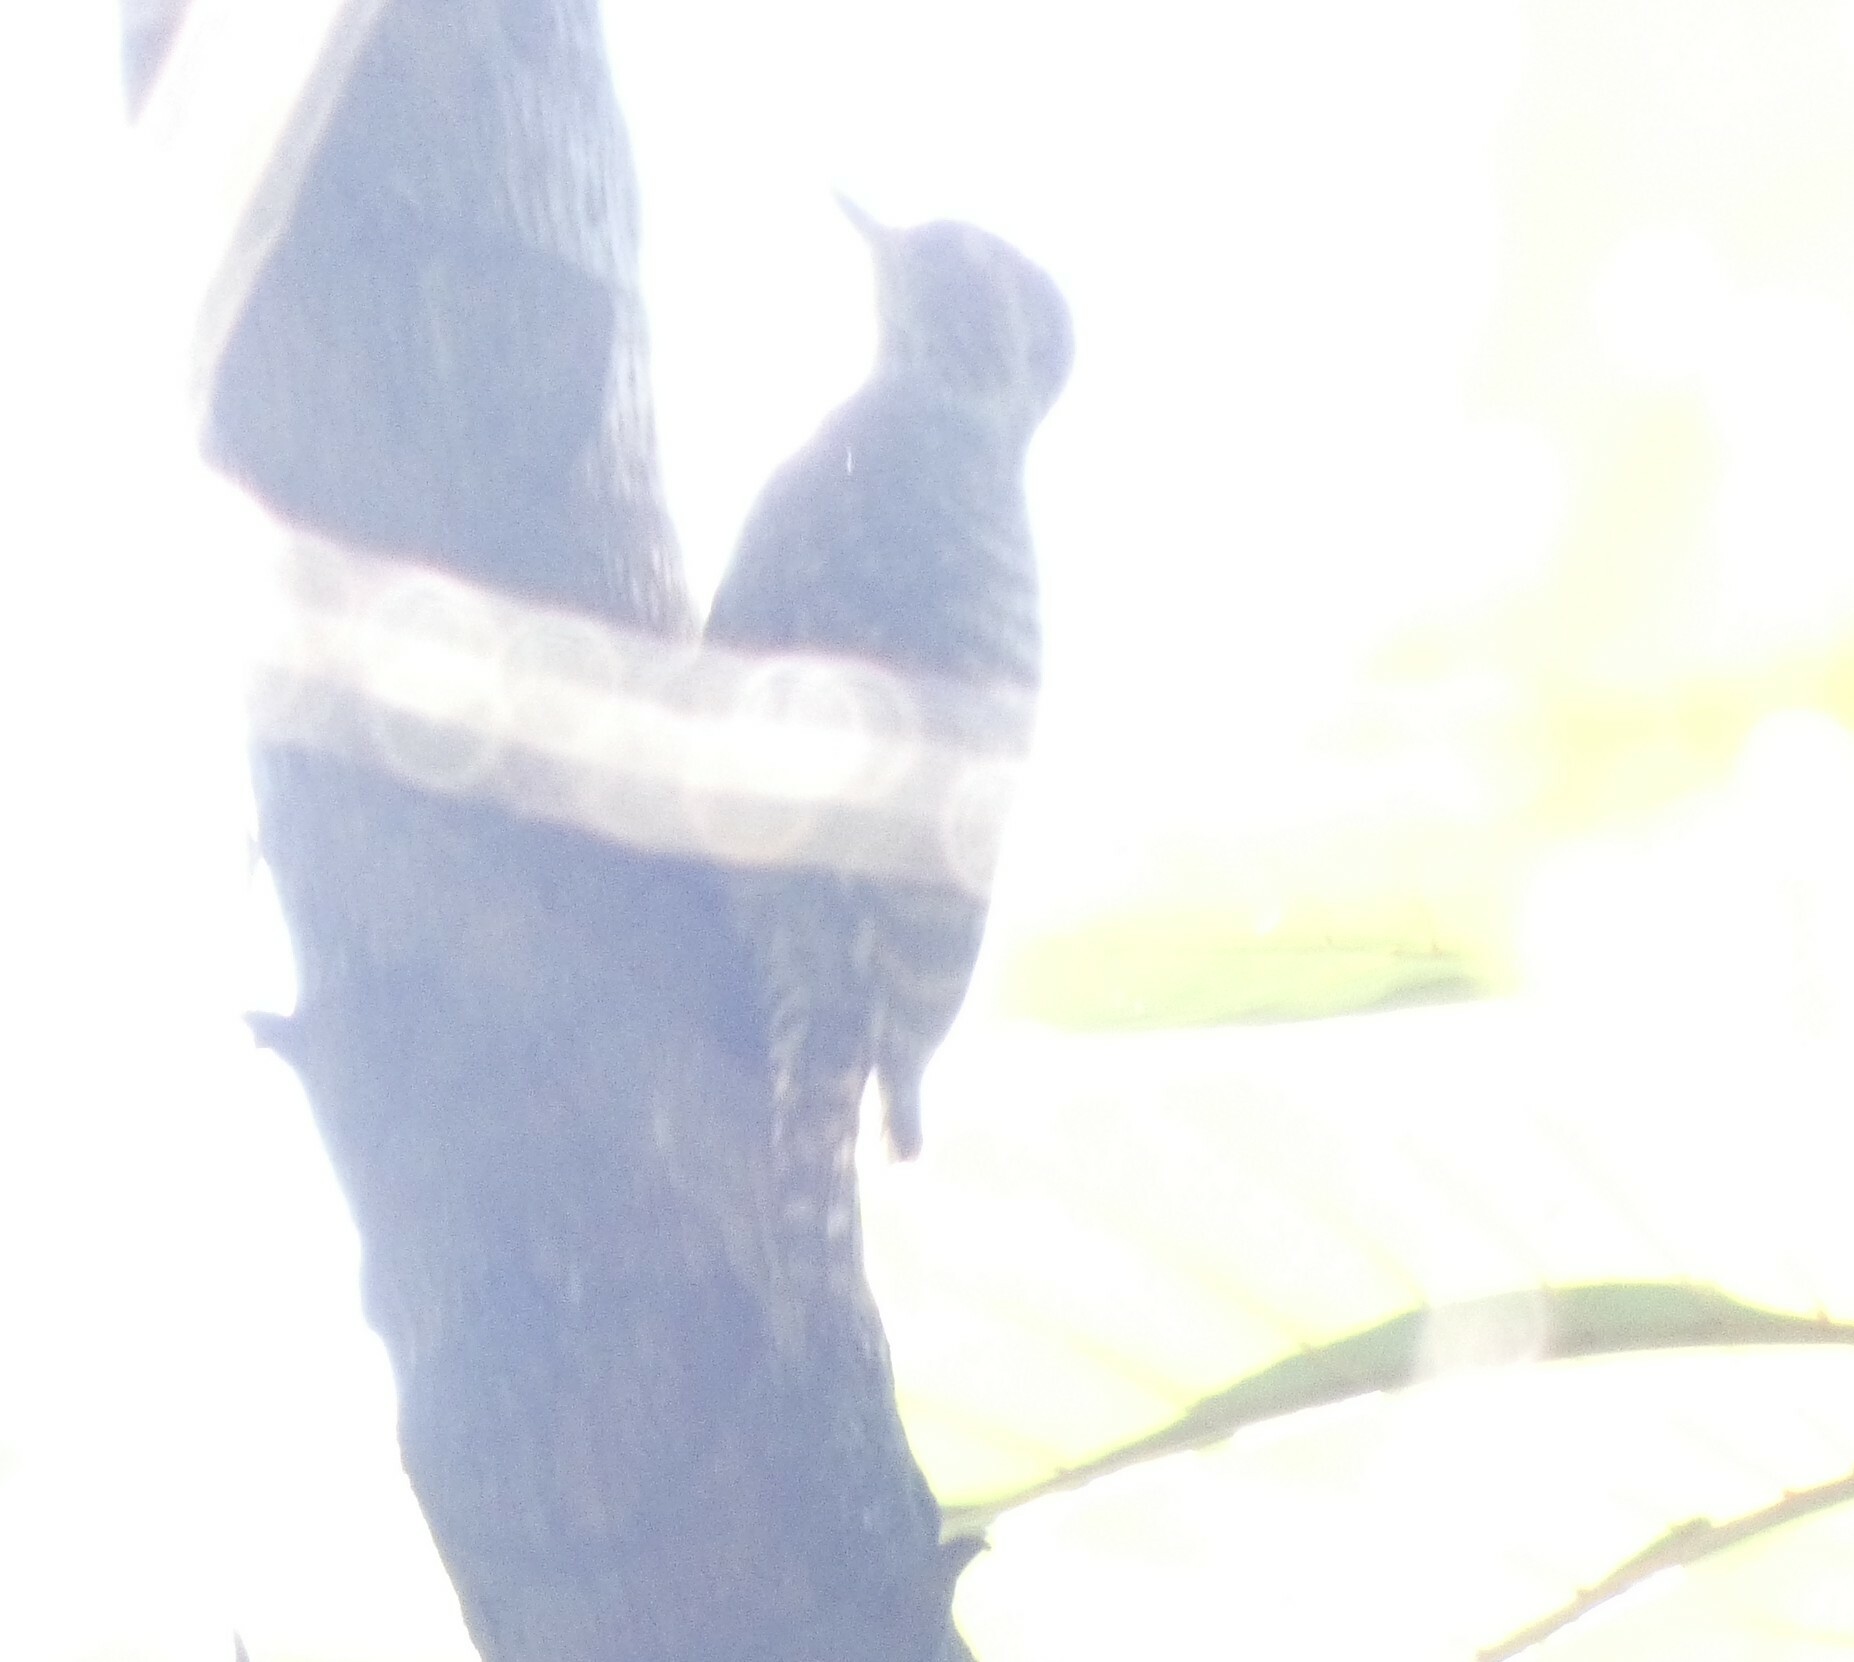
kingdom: Animalia
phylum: Chordata
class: Aves
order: Piciformes
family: Picidae
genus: Veniliornis
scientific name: Veniliornis spilogaster
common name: White-spotted woodpecker
